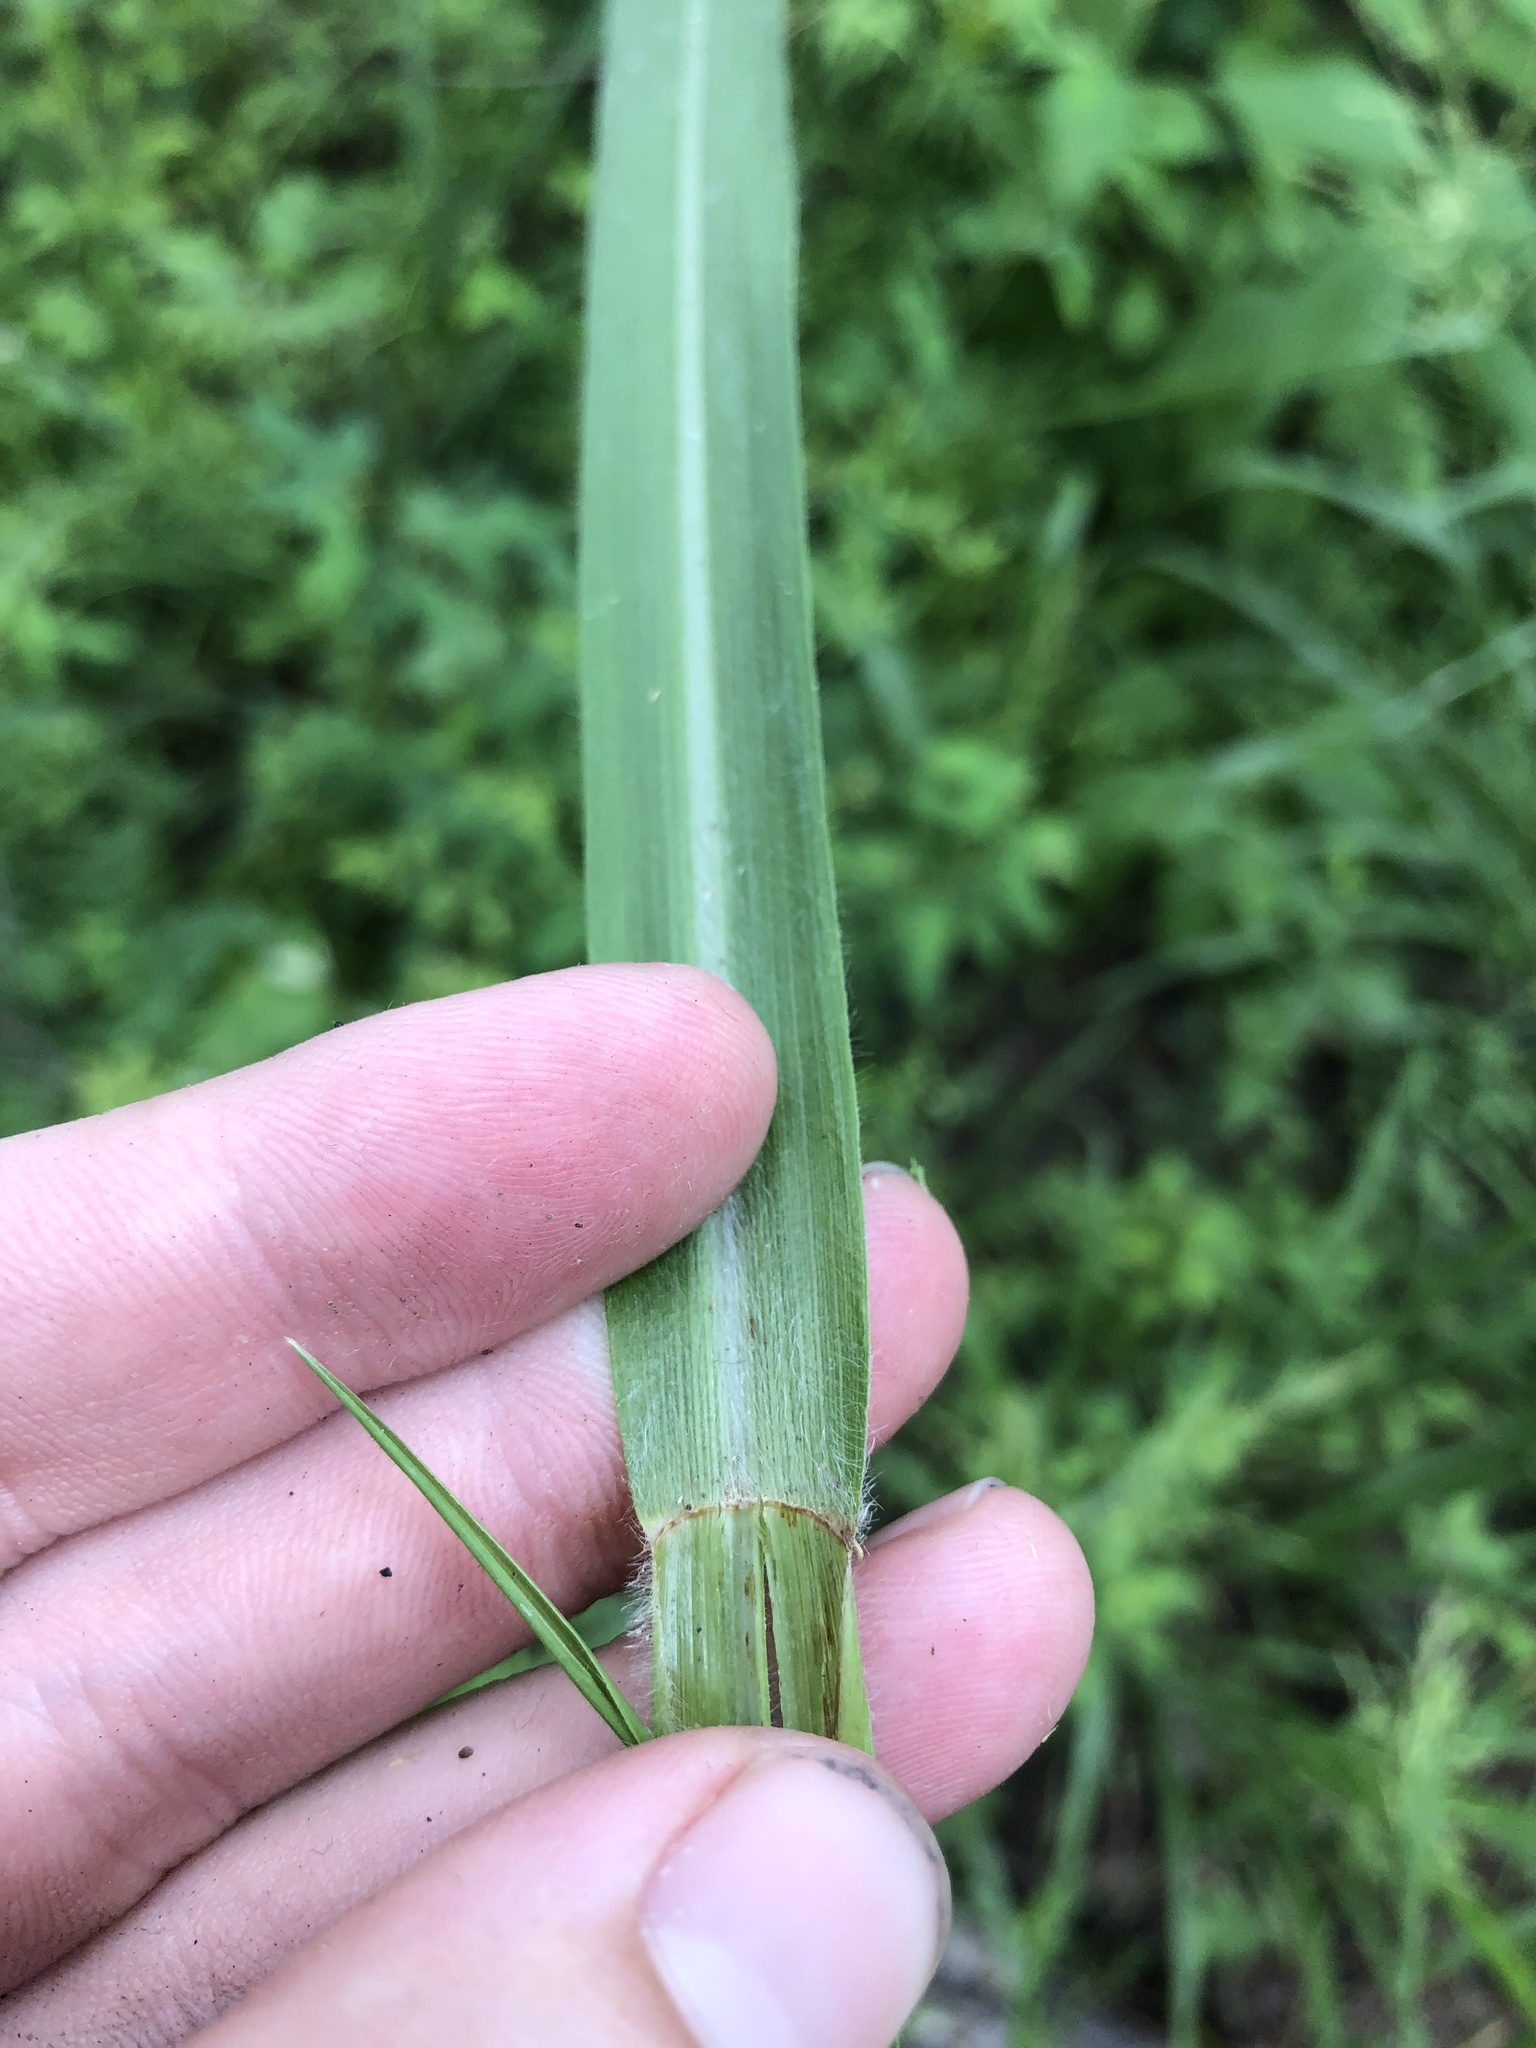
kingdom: Plantae
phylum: Tracheophyta
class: Liliopsida
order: Poales
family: Poaceae
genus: Coleataenia
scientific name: Coleataenia anceps
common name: Beaked panic grass
